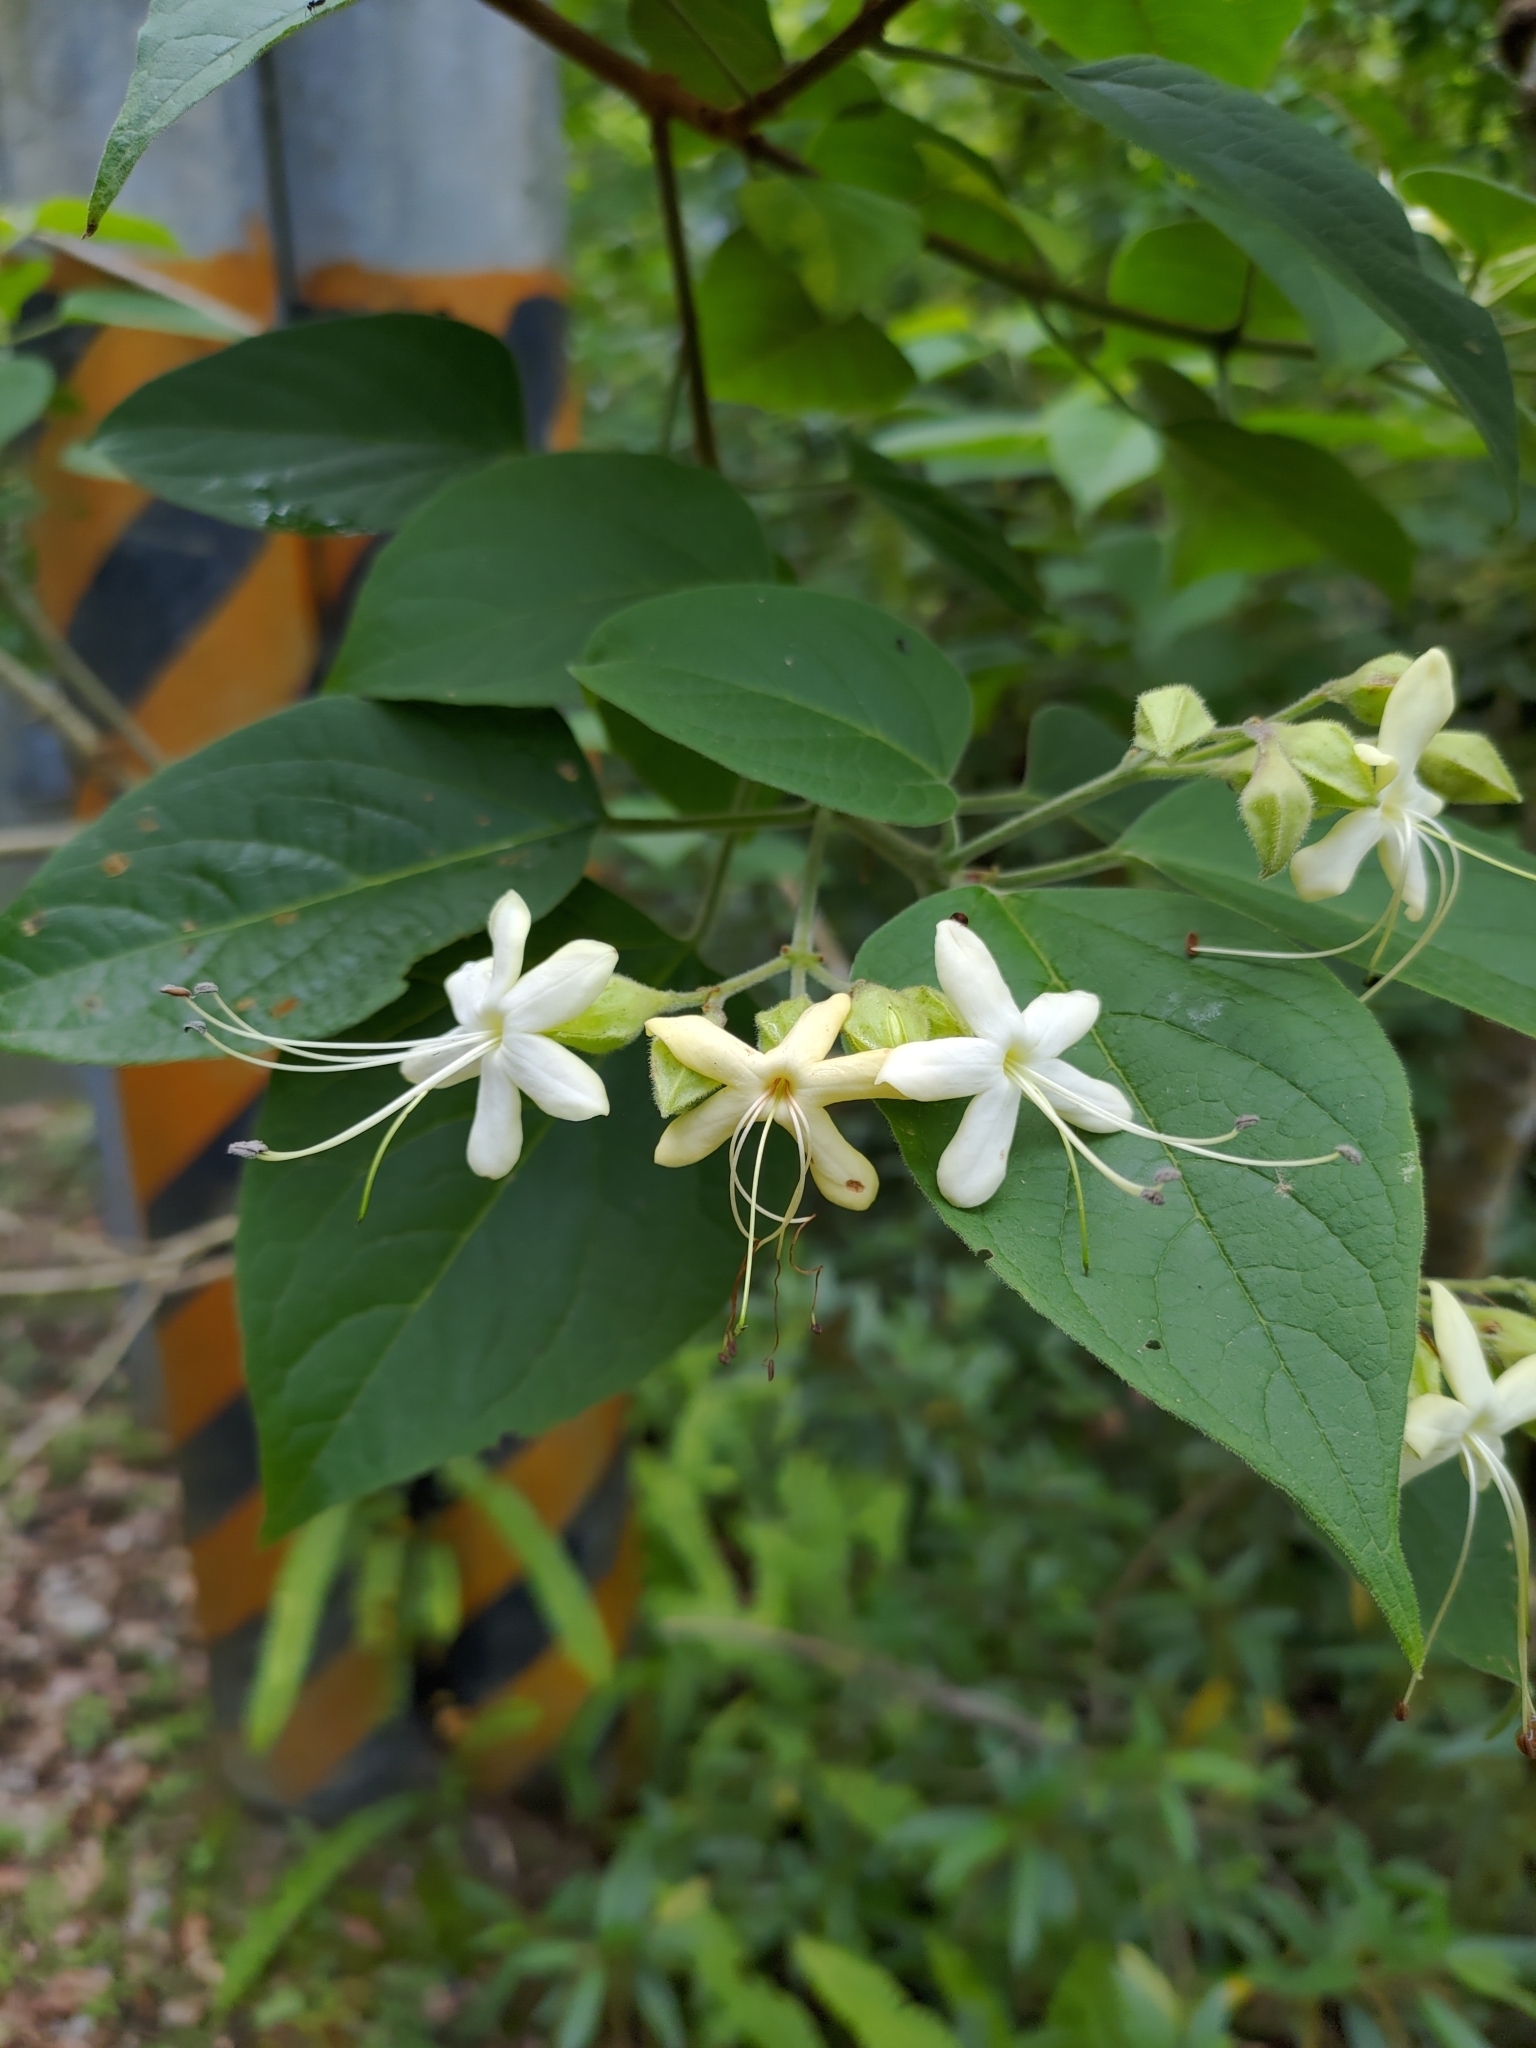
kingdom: Plantae
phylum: Tracheophyta
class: Magnoliopsida
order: Lamiales
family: Lamiaceae
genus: Clerodendrum
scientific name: Clerodendrum trichotomum
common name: Harlequin glorybower
